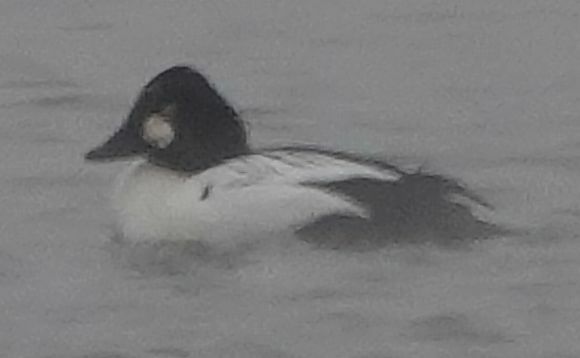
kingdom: Animalia
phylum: Chordata
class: Aves
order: Anseriformes
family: Anatidae
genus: Bucephala
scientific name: Bucephala clangula
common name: Common goldeneye
